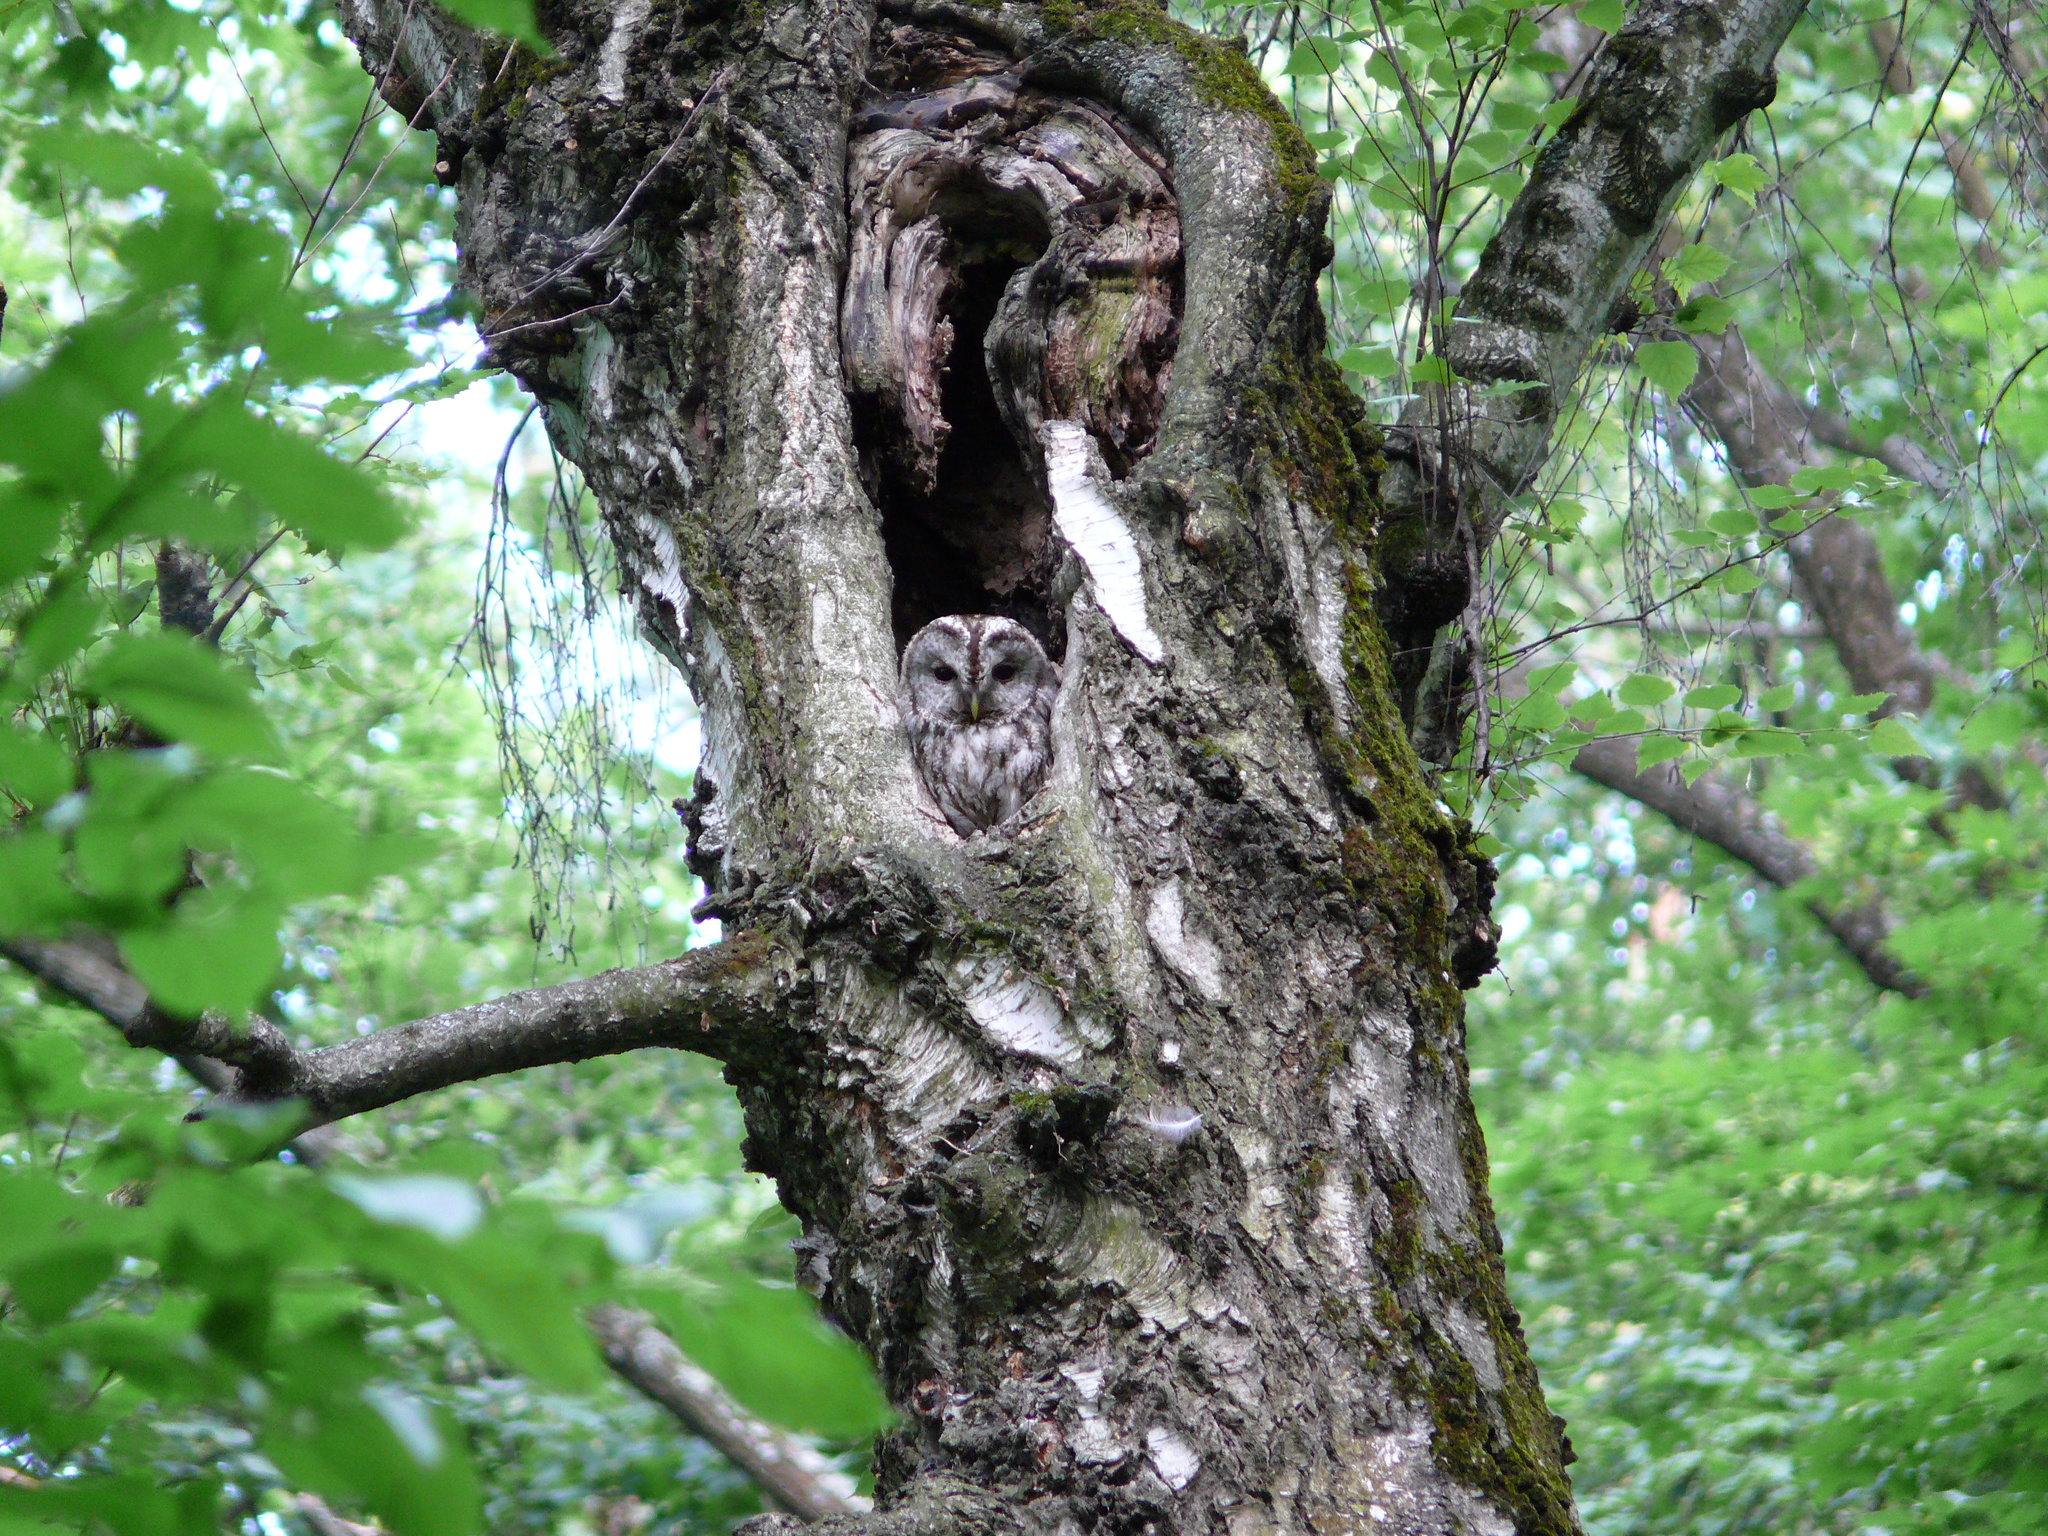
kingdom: Animalia
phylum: Chordata
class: Aves
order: Strigiformes
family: Strigidae
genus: Strix
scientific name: Strix aluco
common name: Tawny owl
